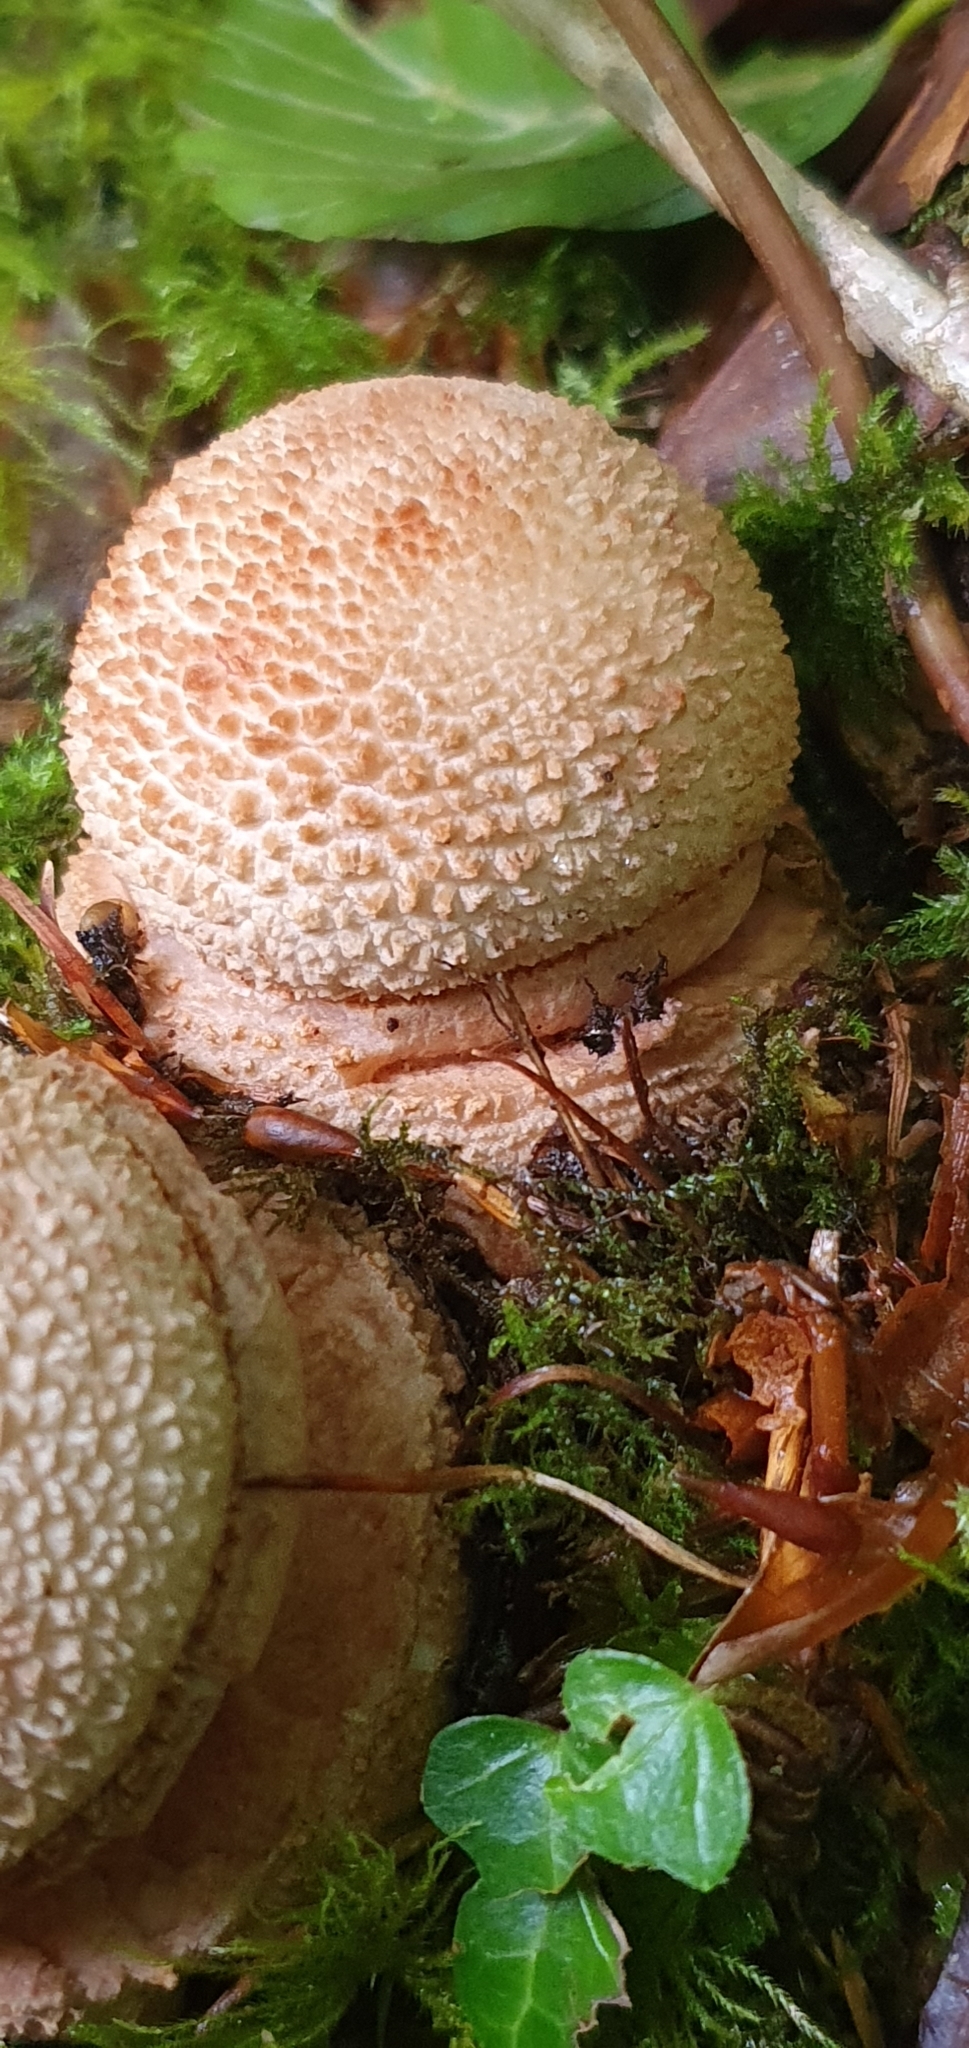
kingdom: Fungi
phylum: Basidiomycota
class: Agaricomycetes
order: Agaricales
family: Amanitaceae
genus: Amanita
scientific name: Amanita rubescens
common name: Blusher
